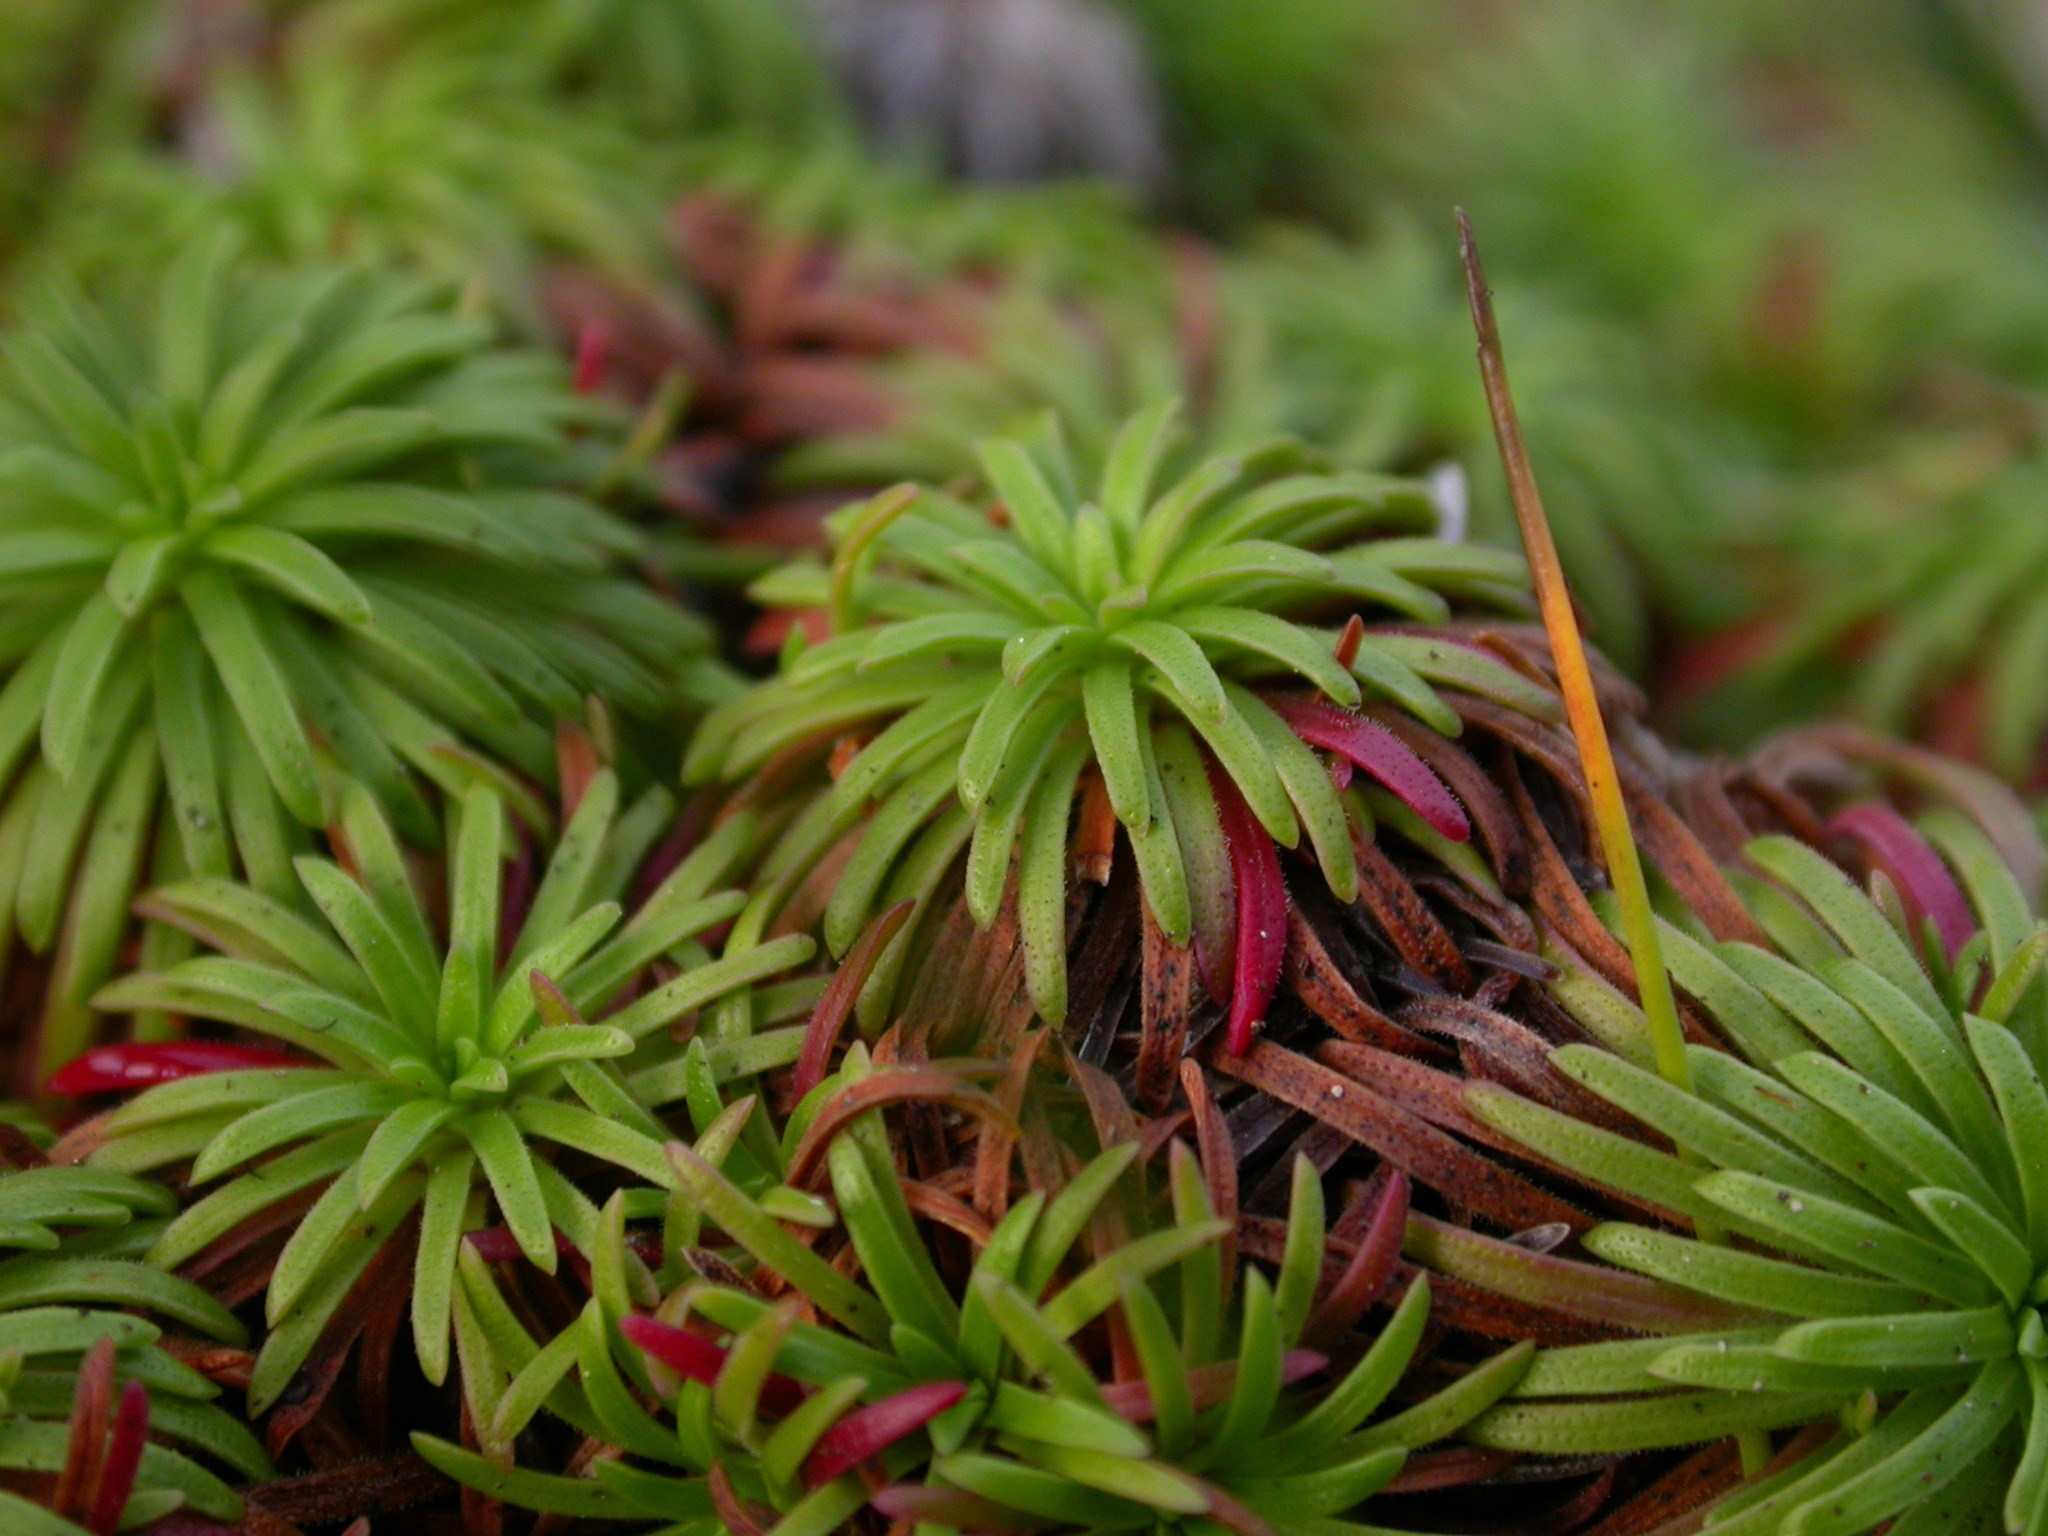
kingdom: Plantae
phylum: Tracheophyta
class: Magnoliopsida
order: Caryophyllales
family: Plumbaginaceae
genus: Armeria
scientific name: Armeria maritima
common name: Thrift
